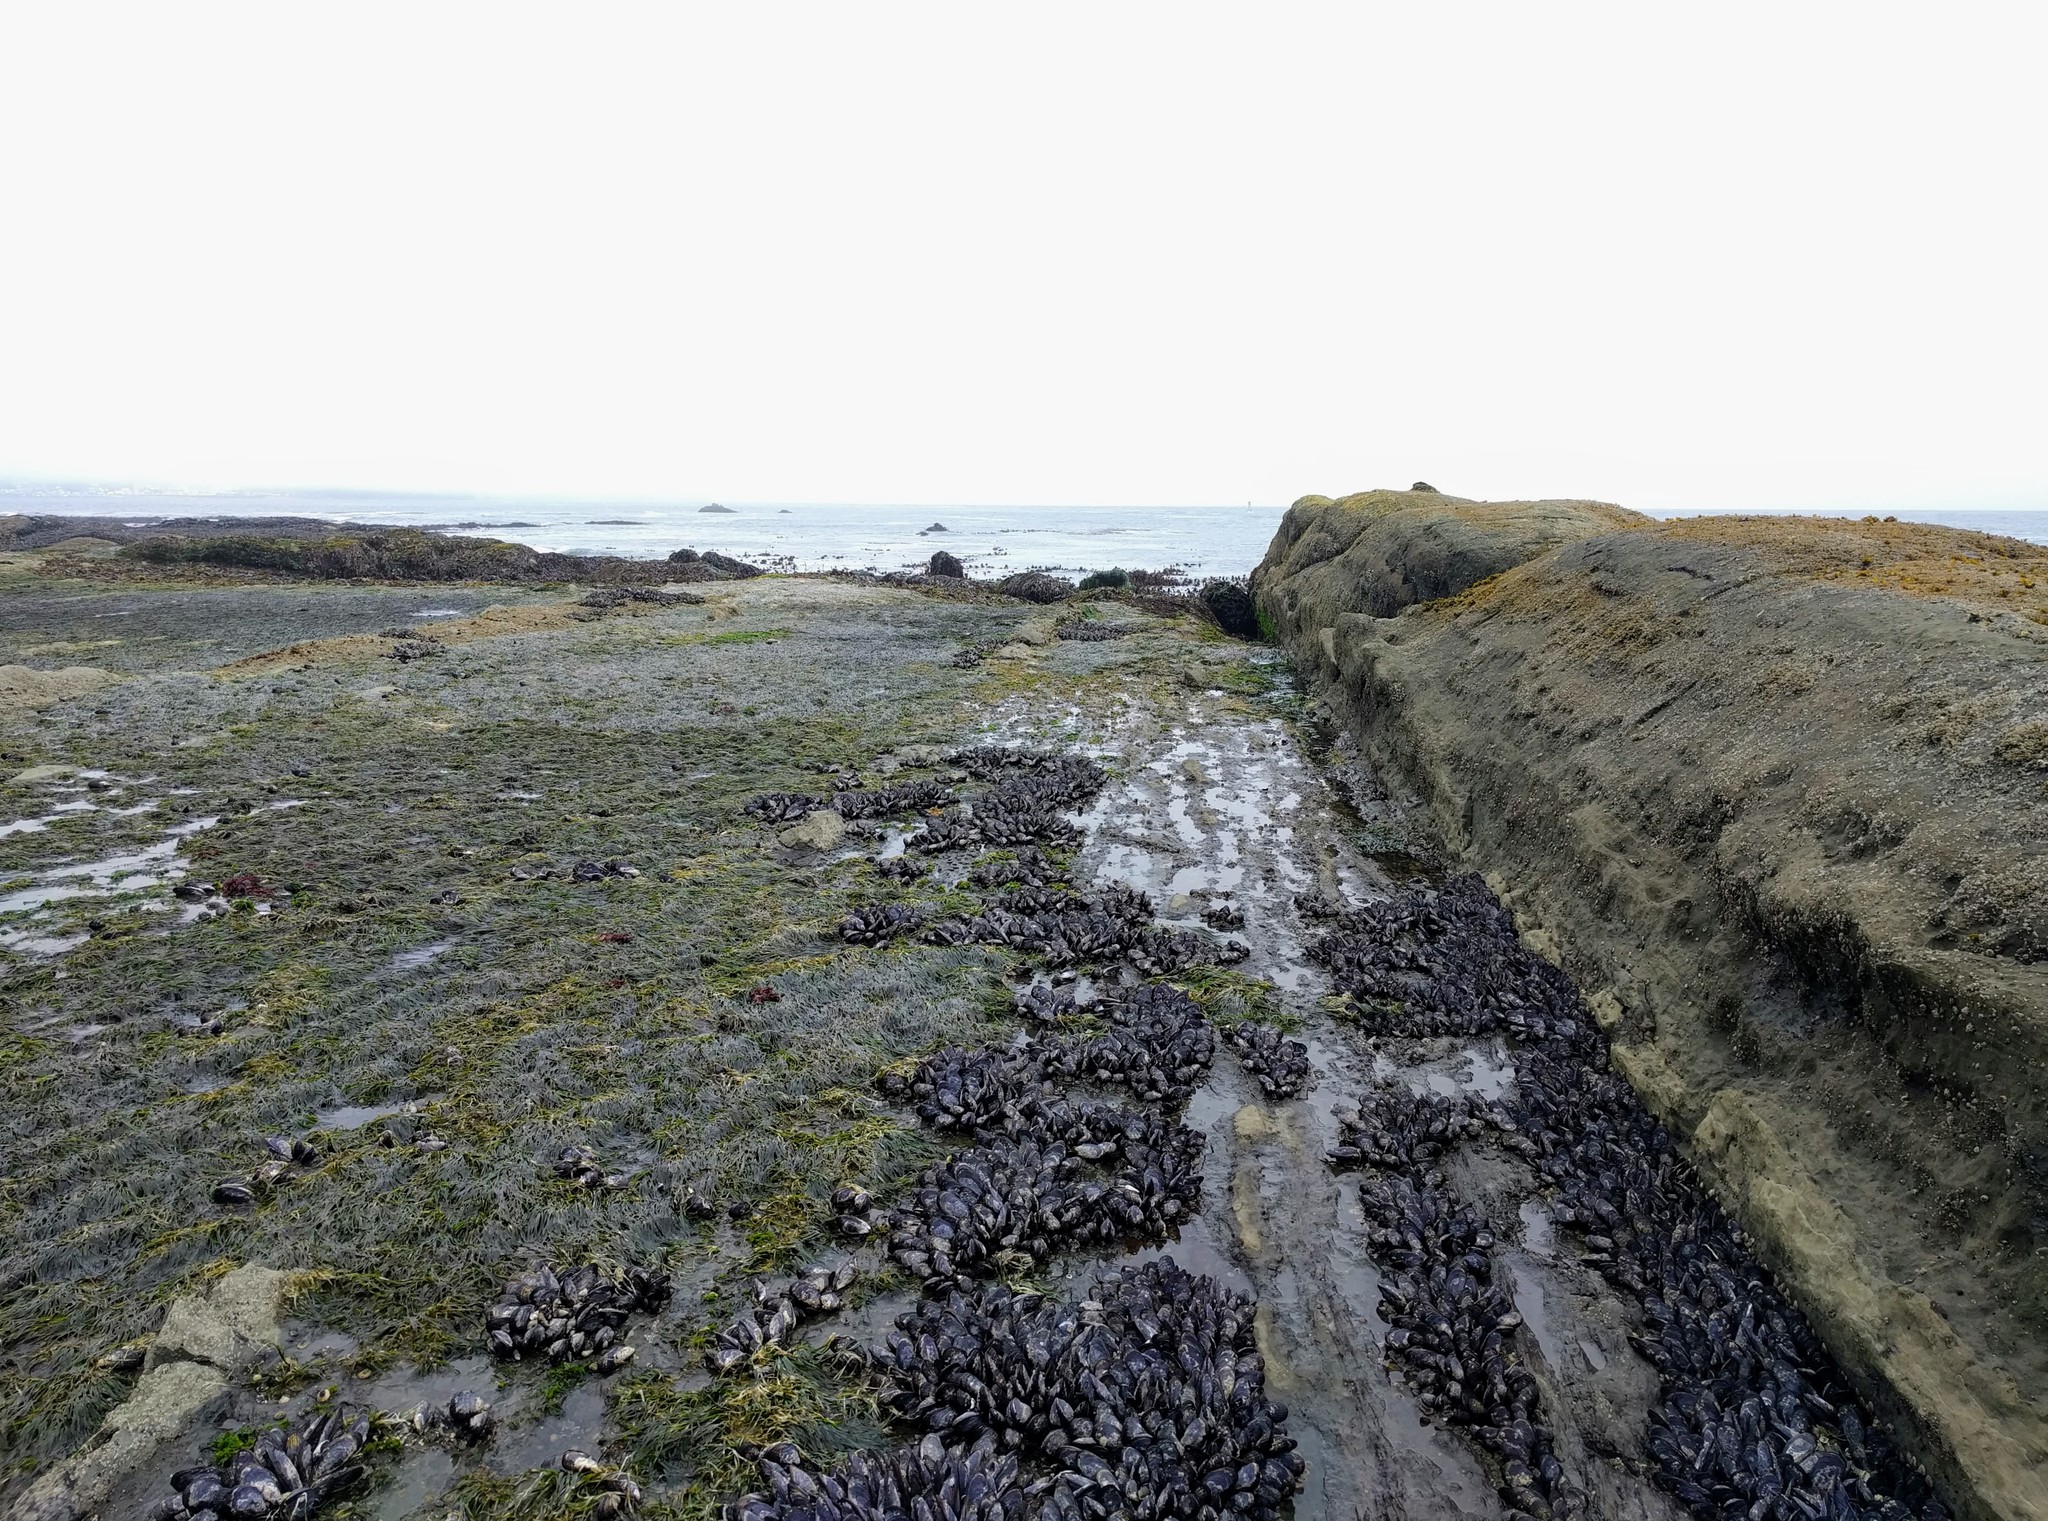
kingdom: Animalia
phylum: Mollusca
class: Bivalvia
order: Mytilida
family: Mytilidae
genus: Mytilus
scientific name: Mytilus californianus
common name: California mussel
